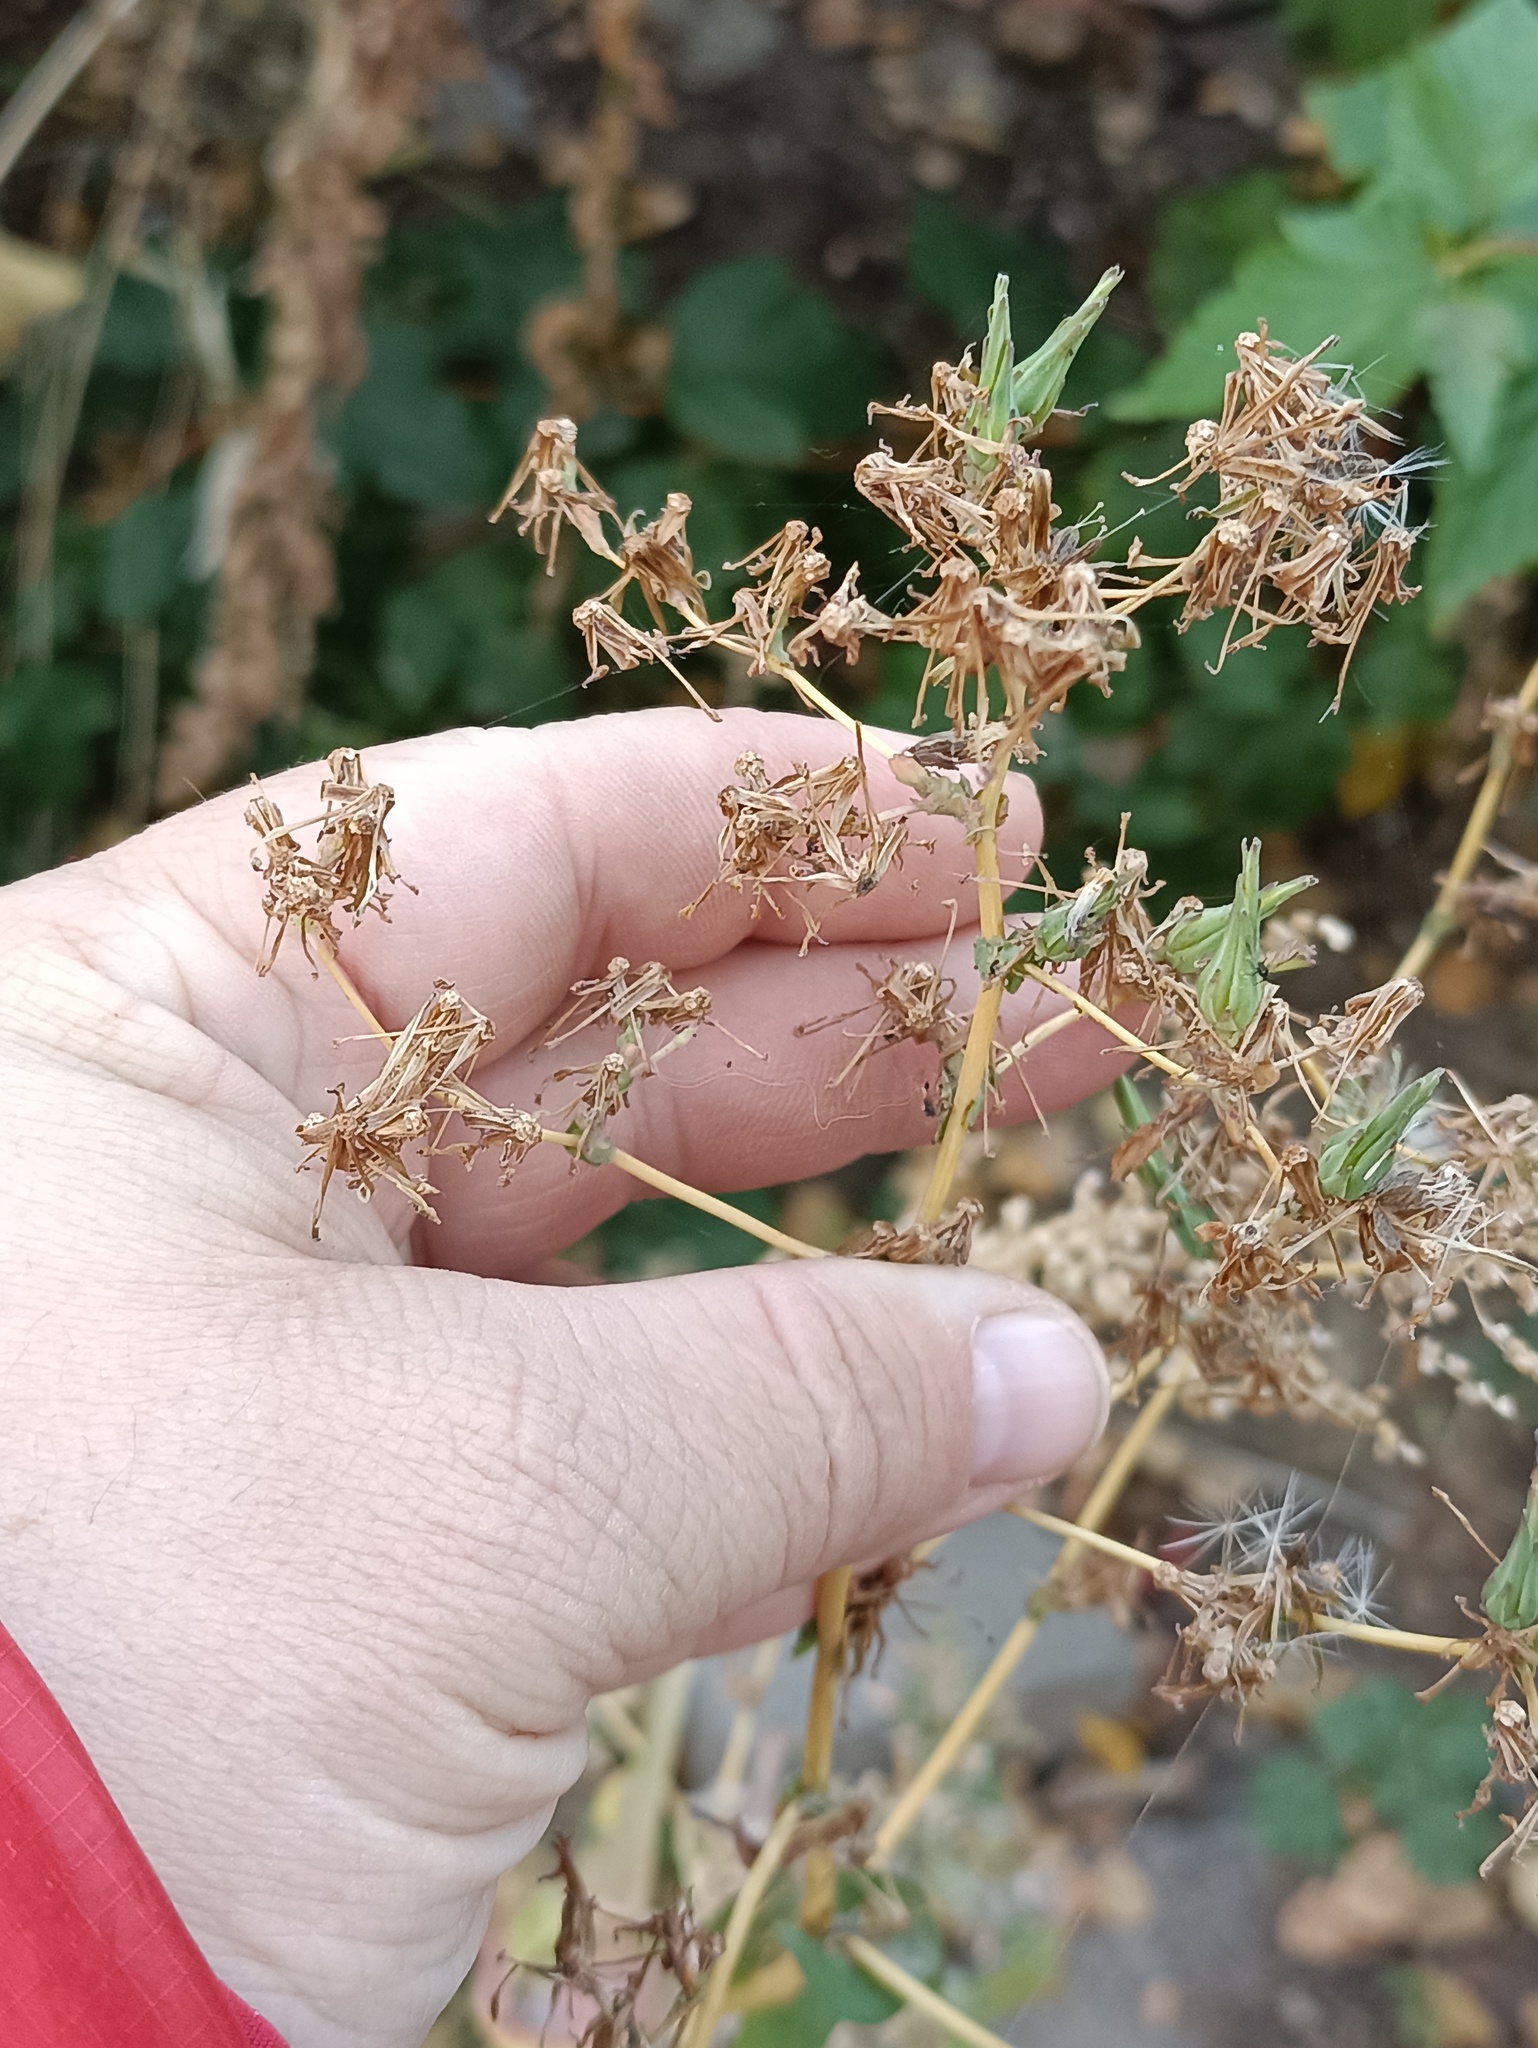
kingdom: Plantae
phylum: Tracheophyta
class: Magnoliopsida
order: Asterales
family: Asteraceae
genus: Lactuca
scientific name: Lactuca serriola
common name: Prickly lettuce
